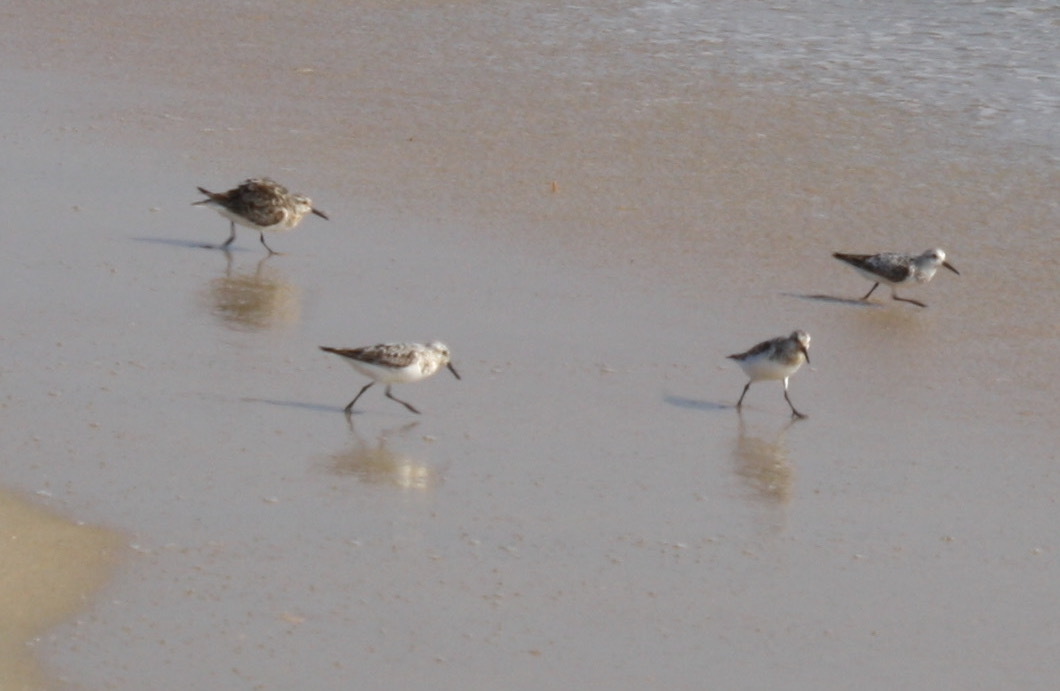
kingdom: Animalia
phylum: Chordata
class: Aves
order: Charadriiformes
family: Scolopacidae
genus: Calidris
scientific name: Calidris alba
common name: Sanderling
